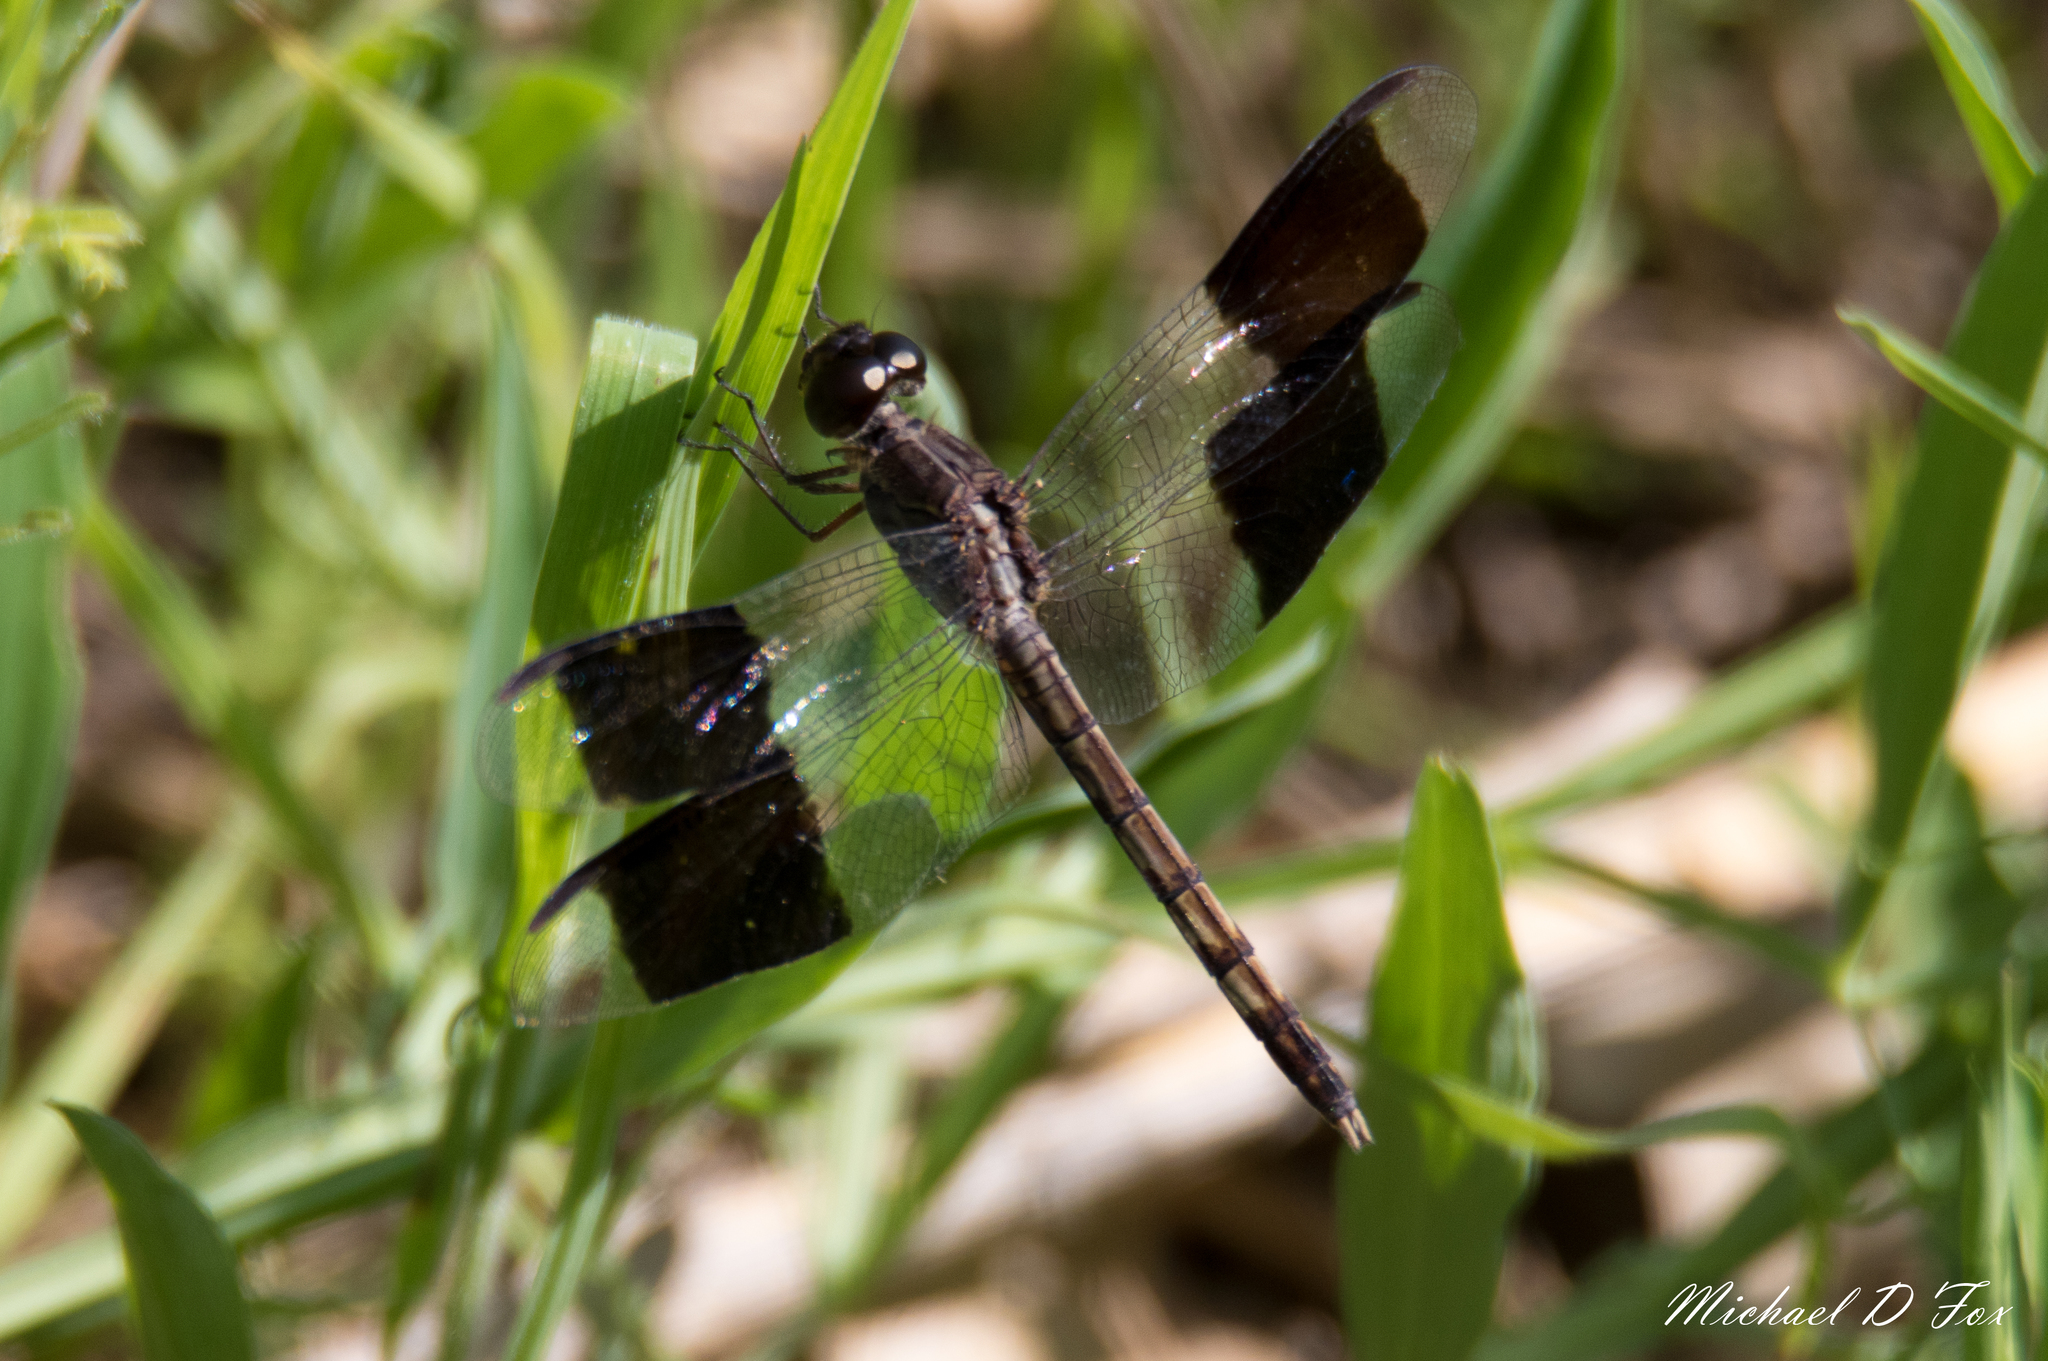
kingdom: Animalia
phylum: Arthropoda
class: Insecta
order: Odonata
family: Libellulidae
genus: Erythrodiplax
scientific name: Erythrodiplax umbrata
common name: Band-winged dragonlet
